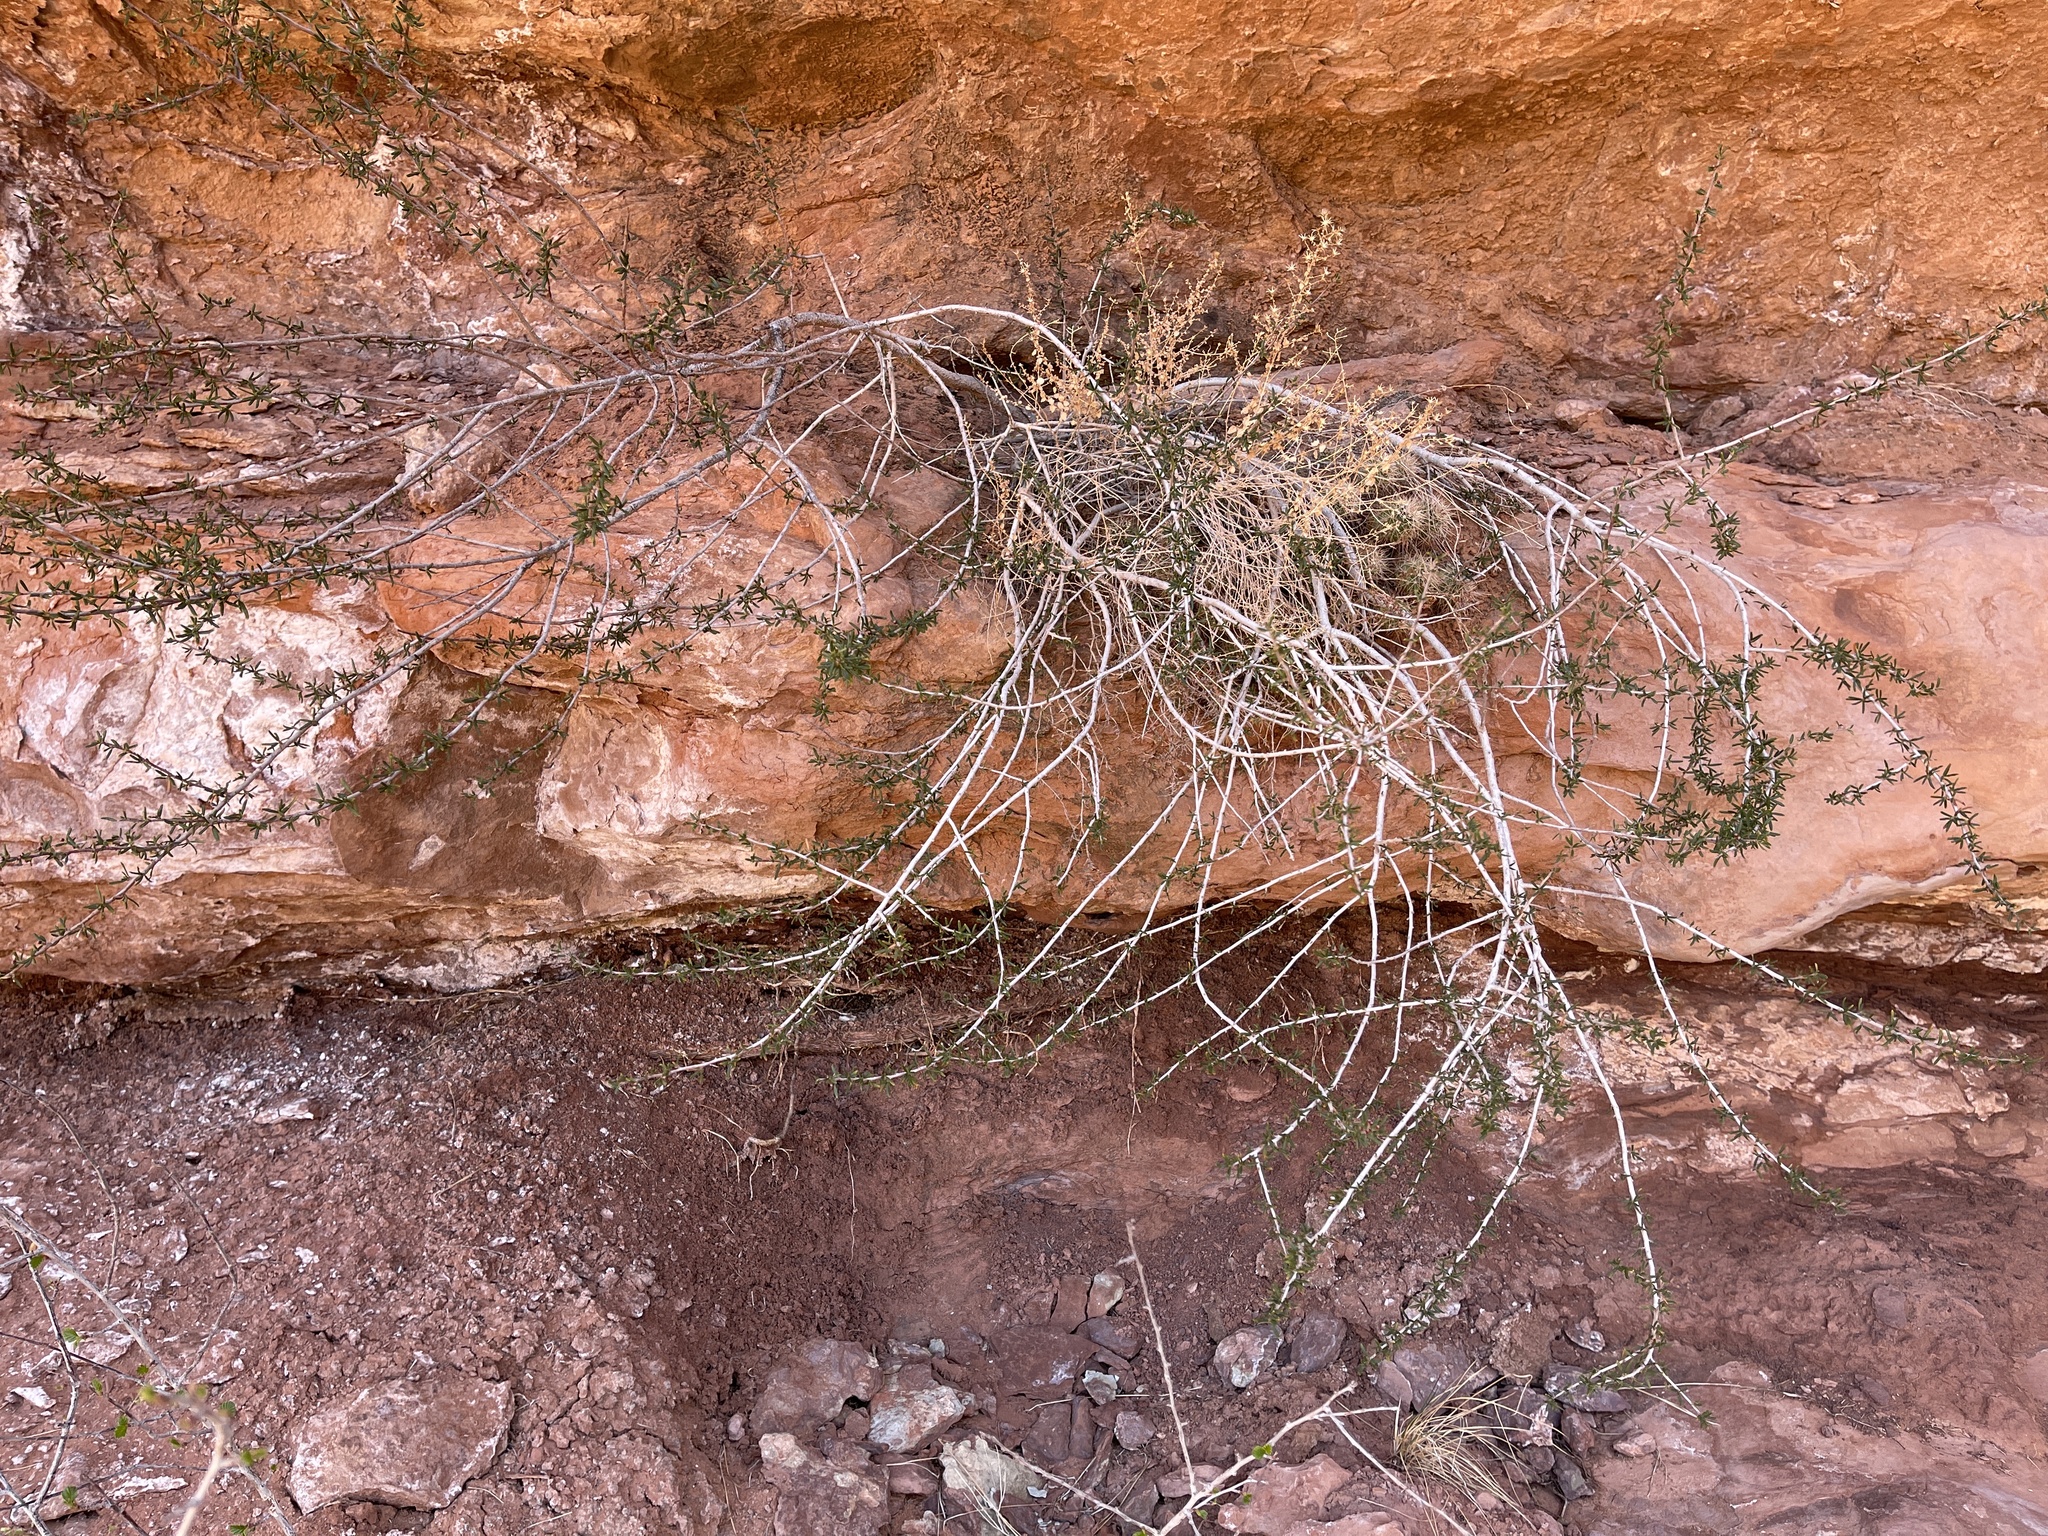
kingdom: Plantae
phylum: Tracheophyta
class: Magnoliopsida
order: Rosales
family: Rosaceae
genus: Cercocarpus
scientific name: Cercocarpus intricatus
